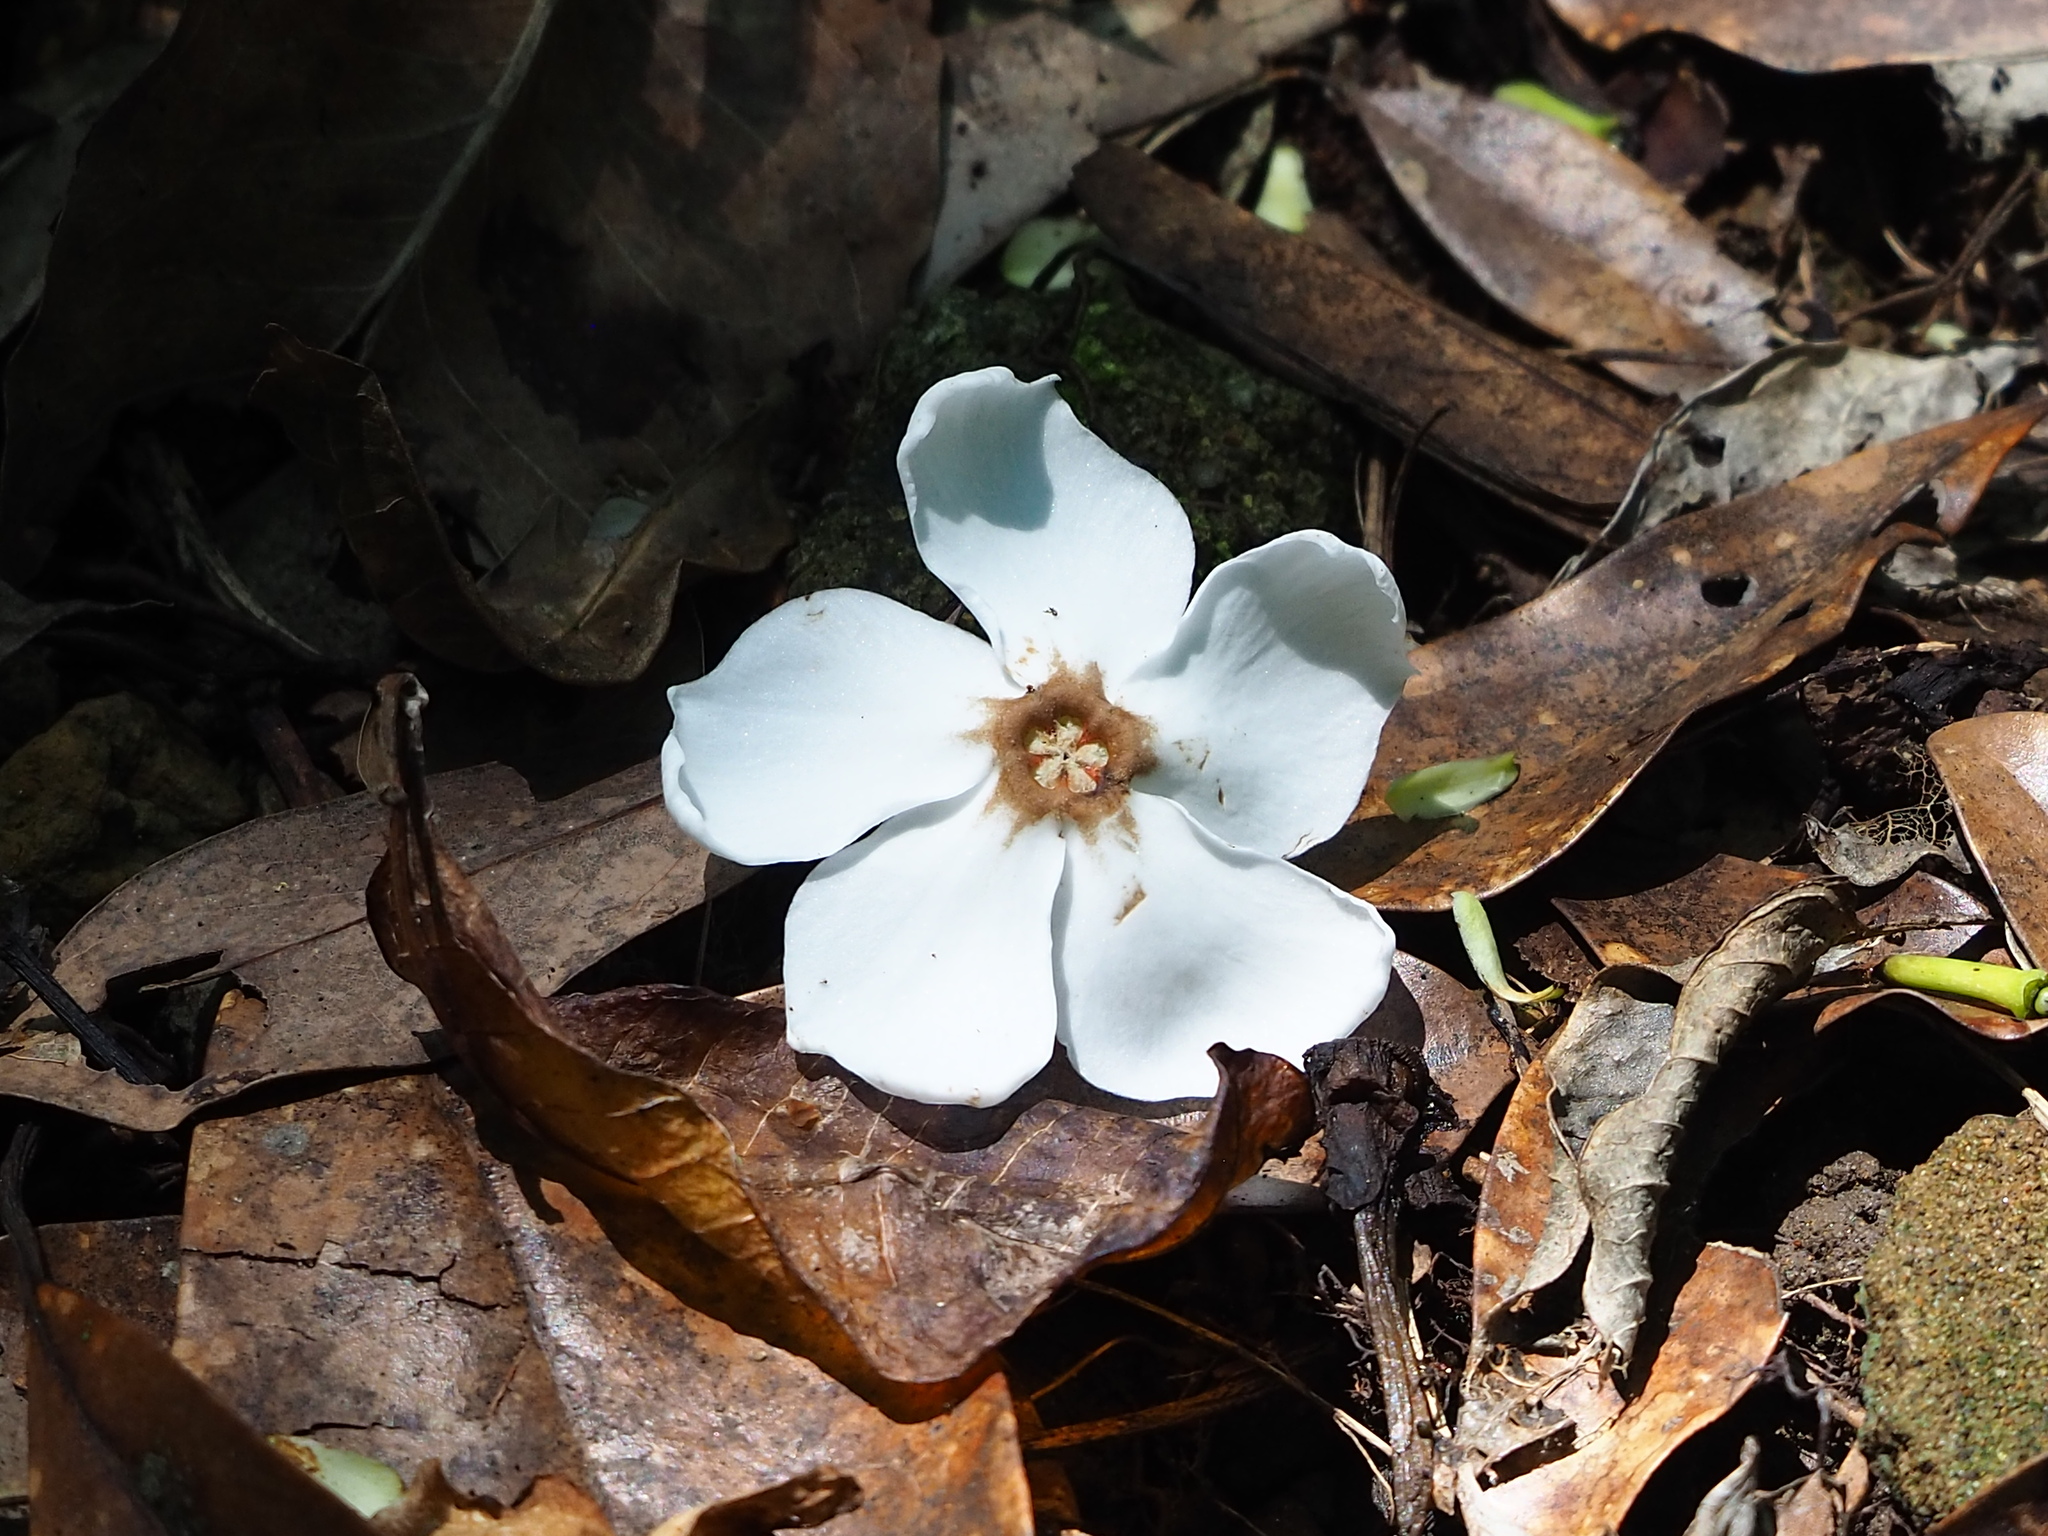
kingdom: Plantae
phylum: Tracheophyta
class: Magnoliopsida
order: Gentianales
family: Apocynaceae
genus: Cerbera
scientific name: Cerbera manghas
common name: Reva
